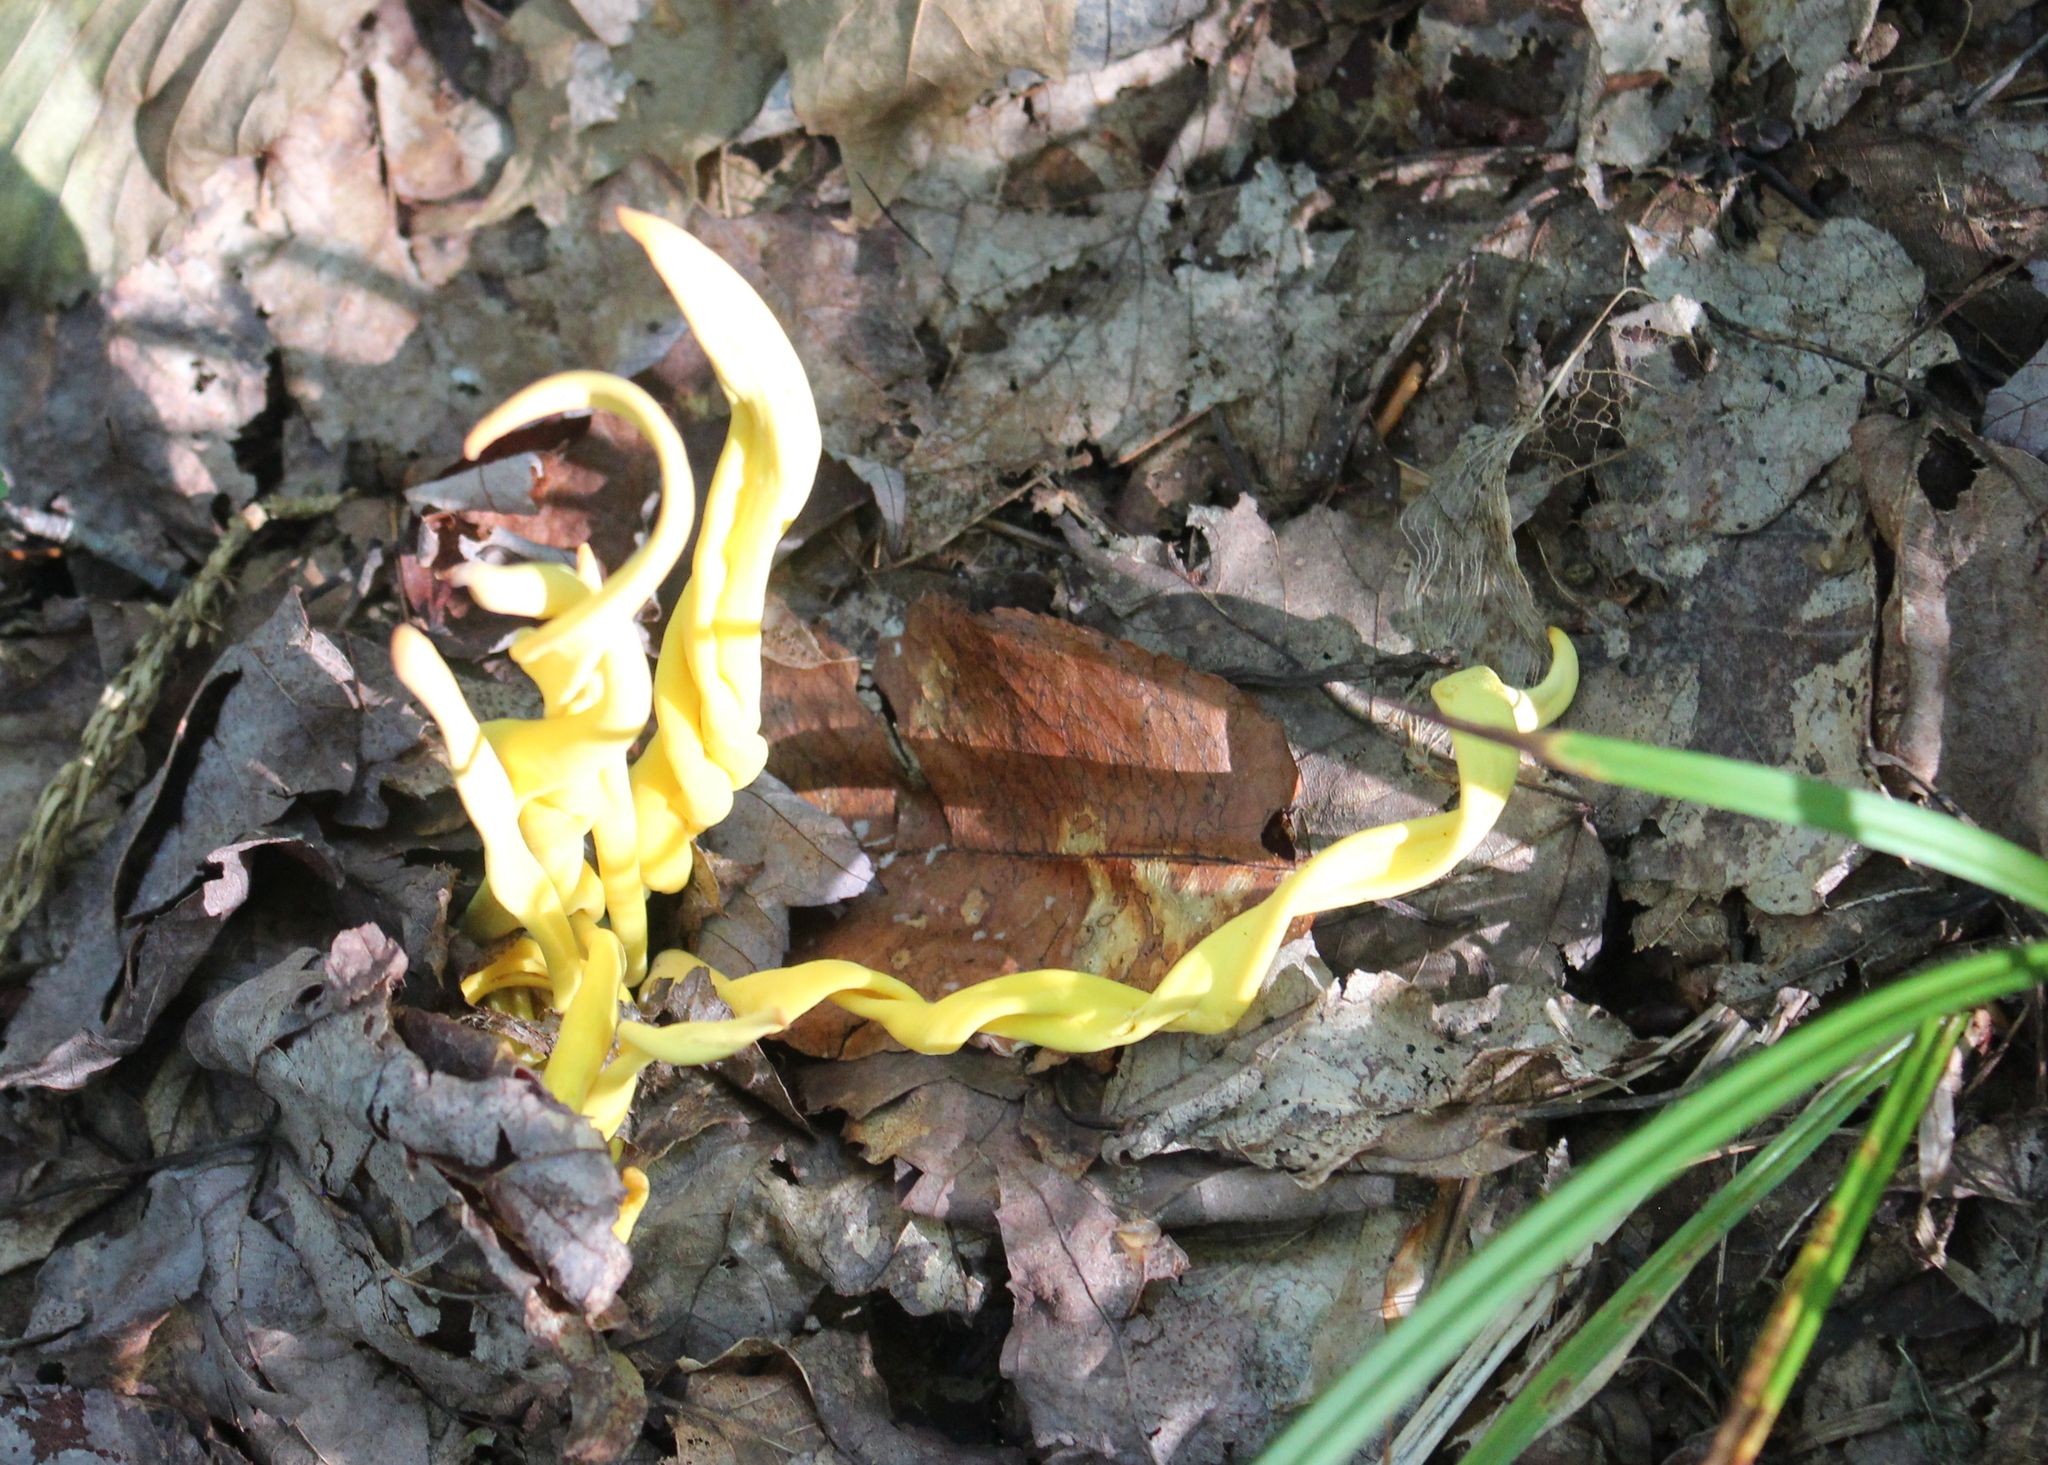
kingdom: Fungi
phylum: Basidiomycota
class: Agaricomycetes
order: Agaricales
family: Clavariaceae
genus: Clavulinopsis
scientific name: Clavulinopsis fusiformis
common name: Golden spindles
